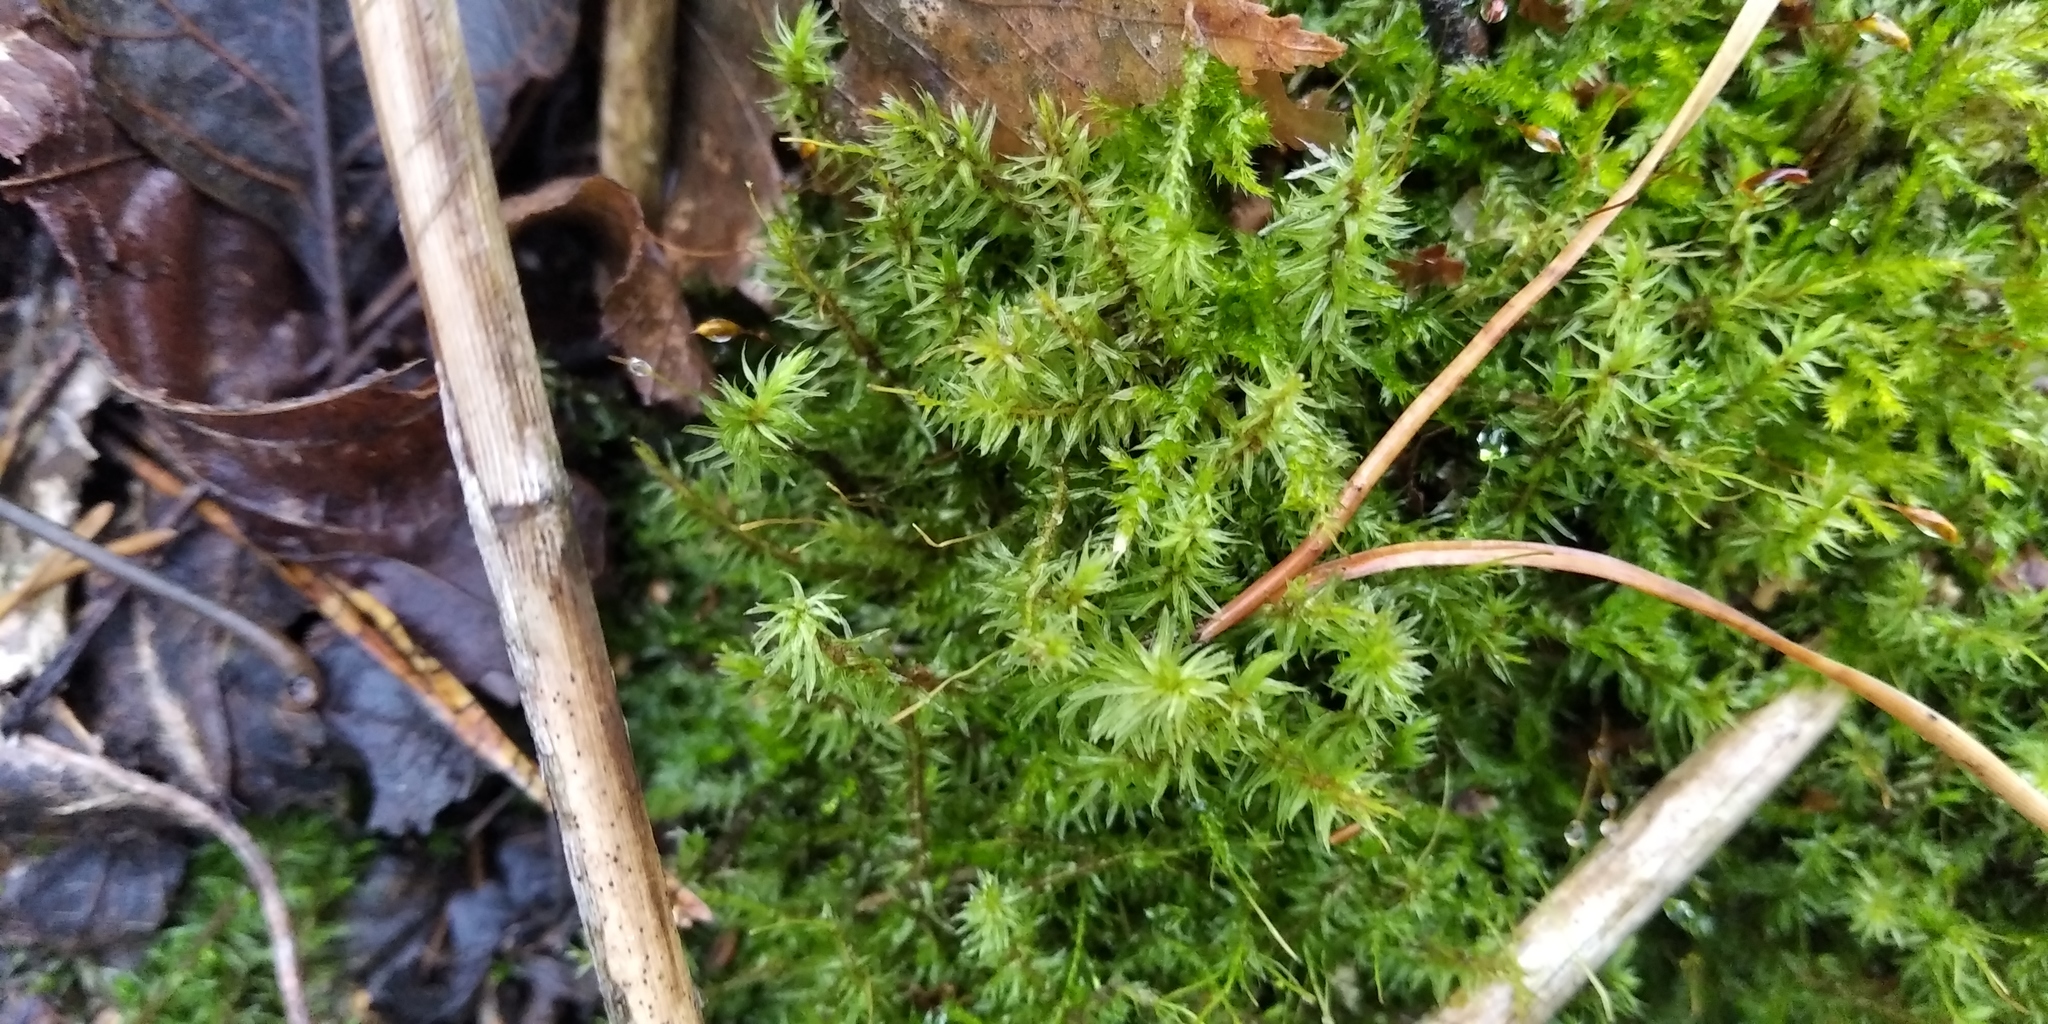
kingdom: Plantae
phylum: Bryophyta
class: Bryopsida
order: Aulacomniales
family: Aulacomniaceae
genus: Aulacomnium
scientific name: Aulacomnium palustre
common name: Bog groove-moss
